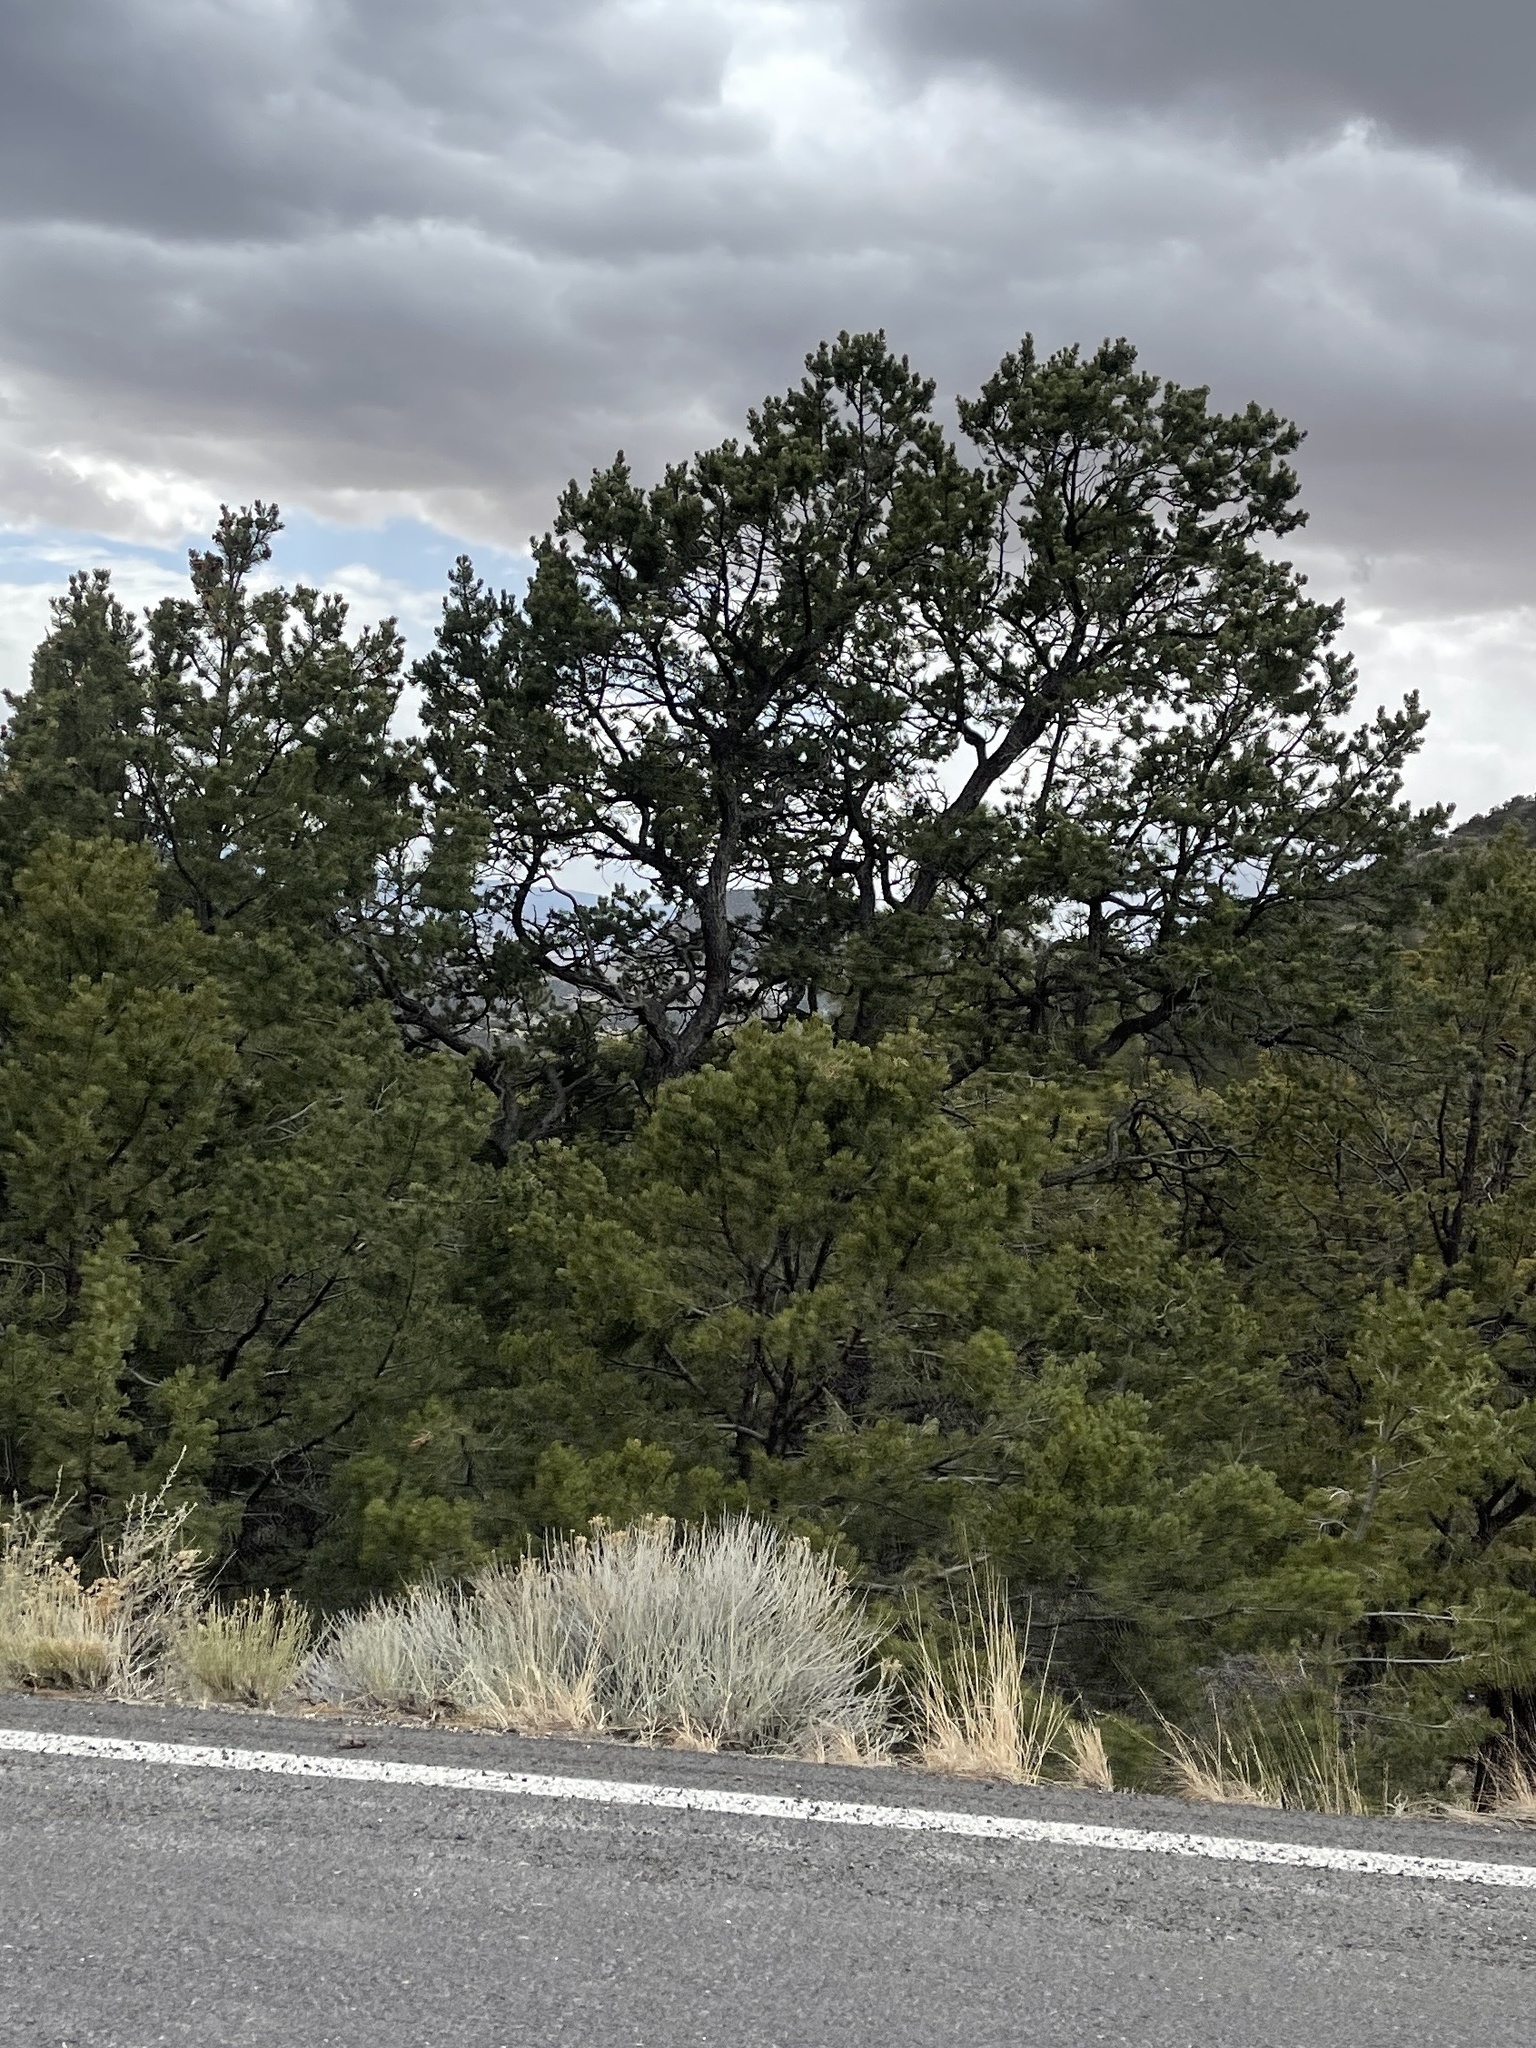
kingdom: Plantae
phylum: Tracheophyta
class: Pinopsida
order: Pinales
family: Pinaceae
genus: Pinus
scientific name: Pinus edulis
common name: Colorado pinyon
